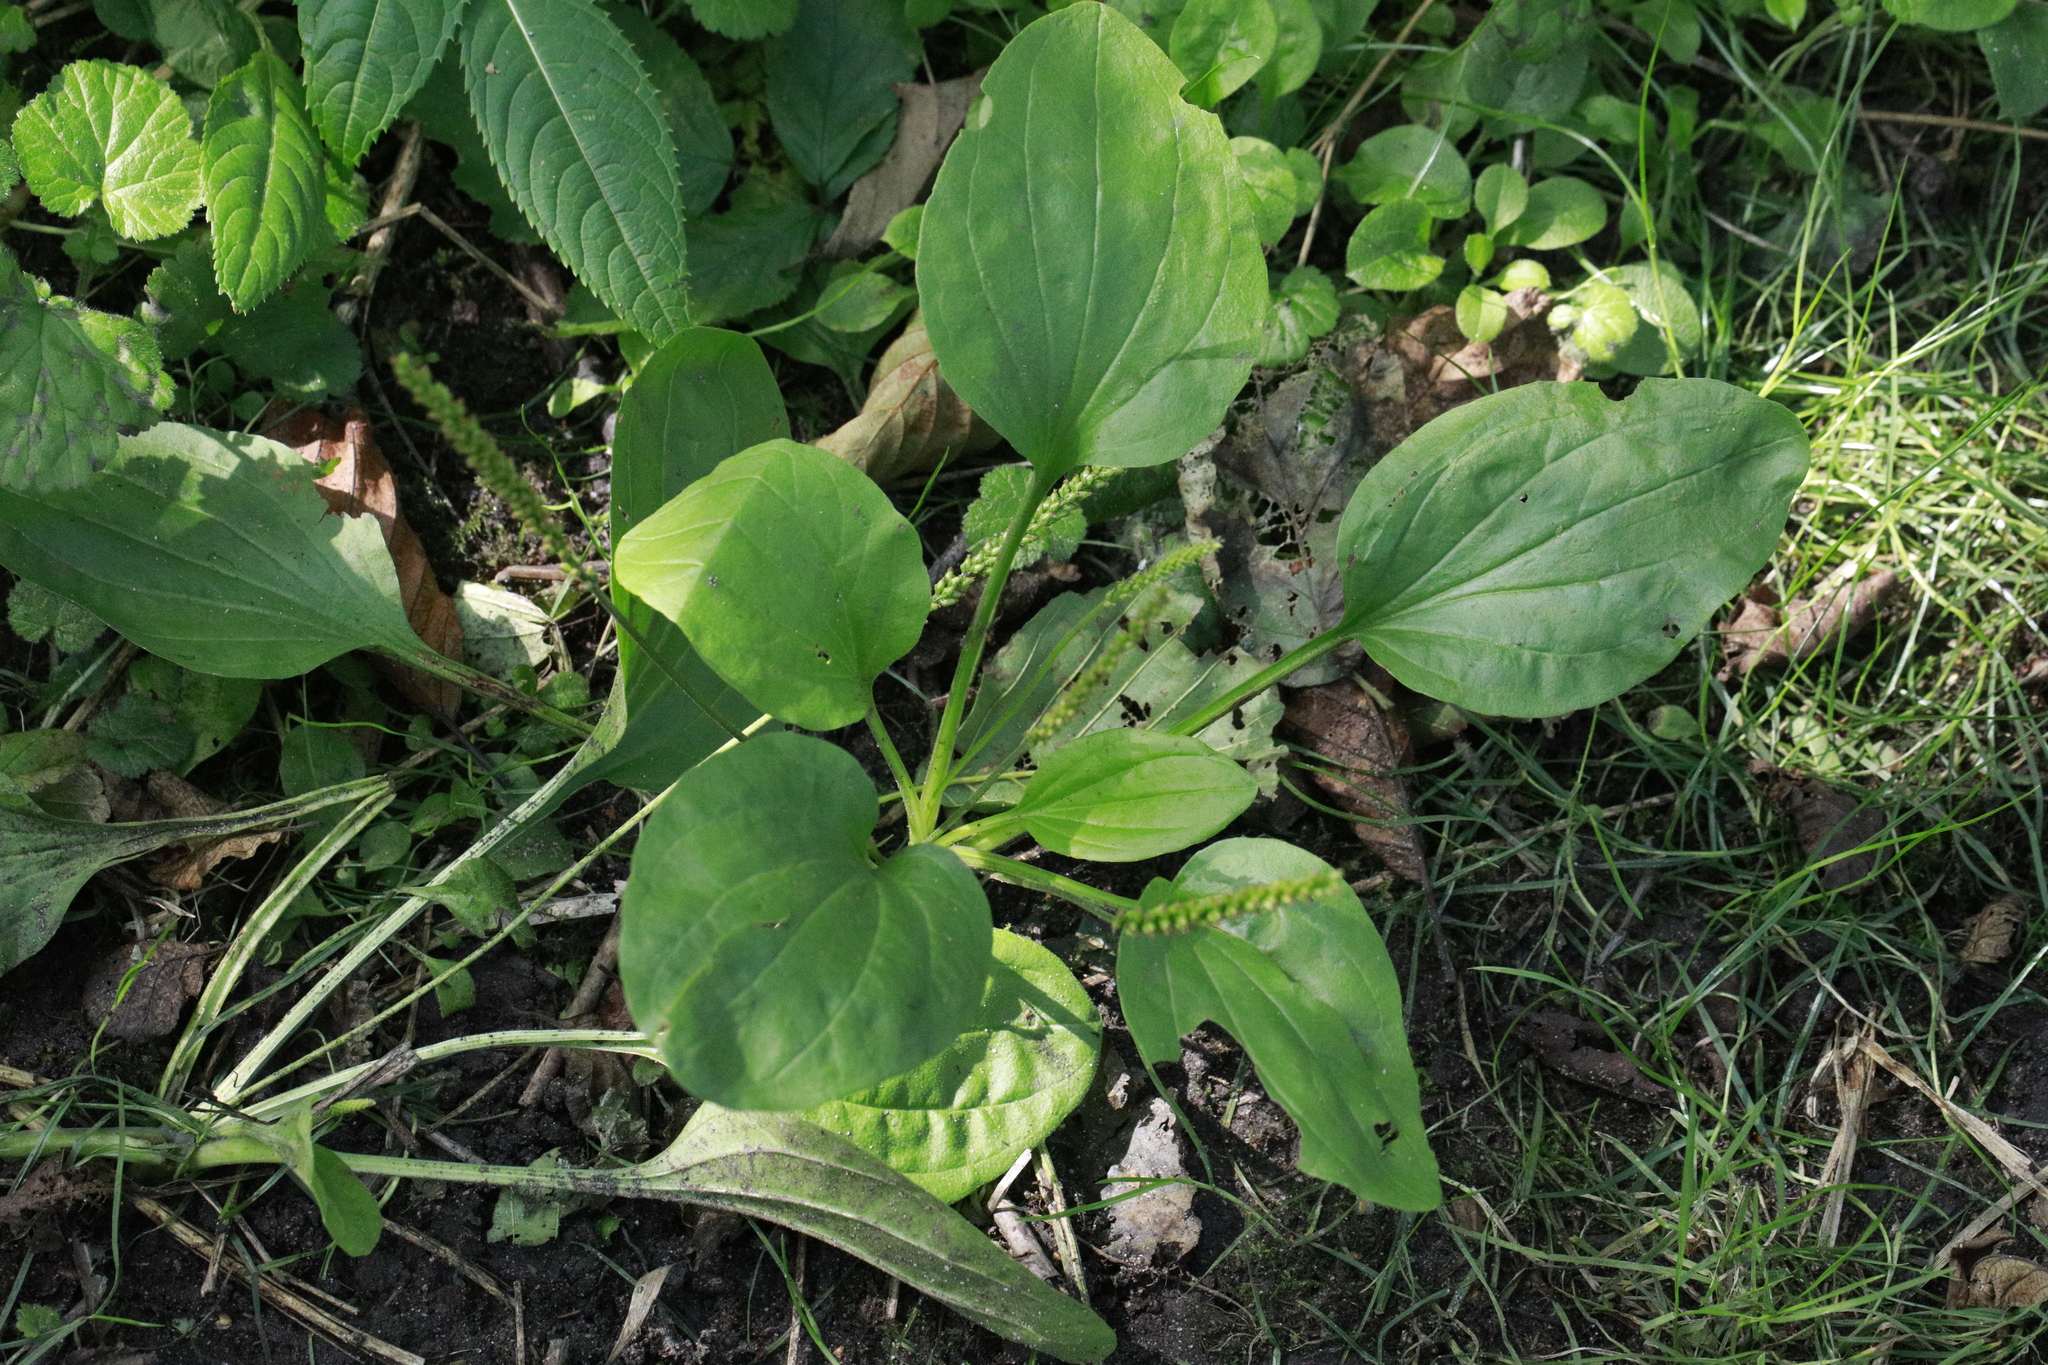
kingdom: Plantae
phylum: Tracheophyta
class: Magnoliopsida
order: Lamiales
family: Plantaginaceae
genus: Plantago
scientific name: Plantago major
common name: Common plantain
